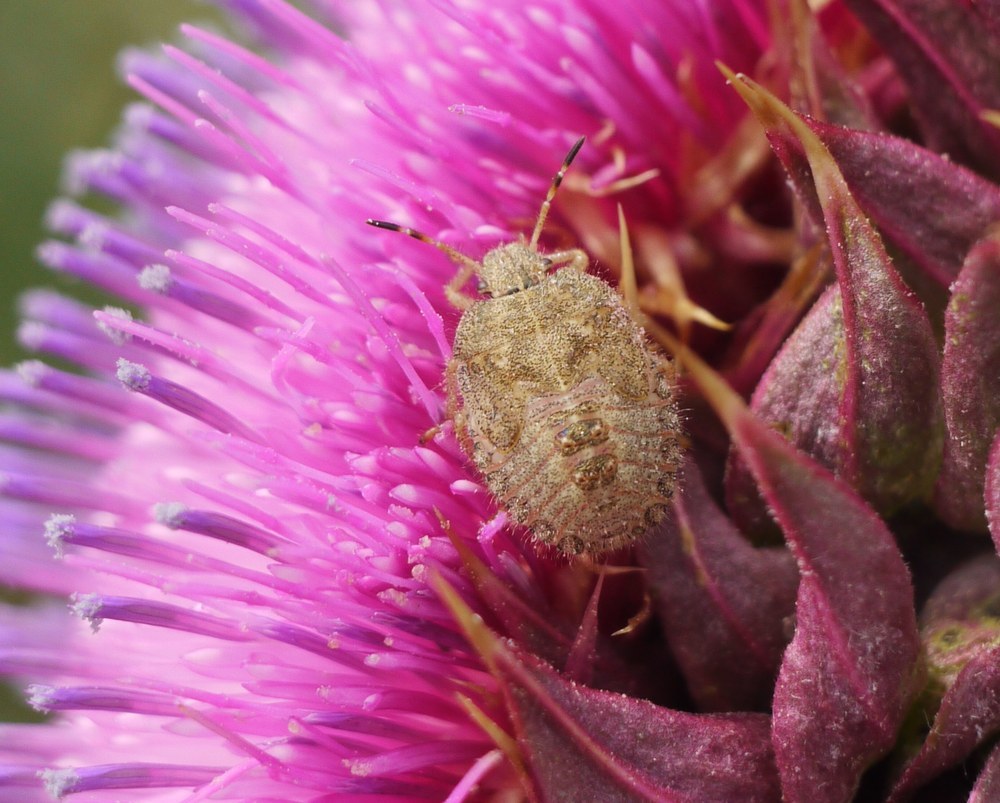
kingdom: Animalia
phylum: Arthropoda
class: Insecta
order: Hemiptera
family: Pentatomidae
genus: Dolycoris
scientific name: Dolycoris baccarum
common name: Sloe bug
